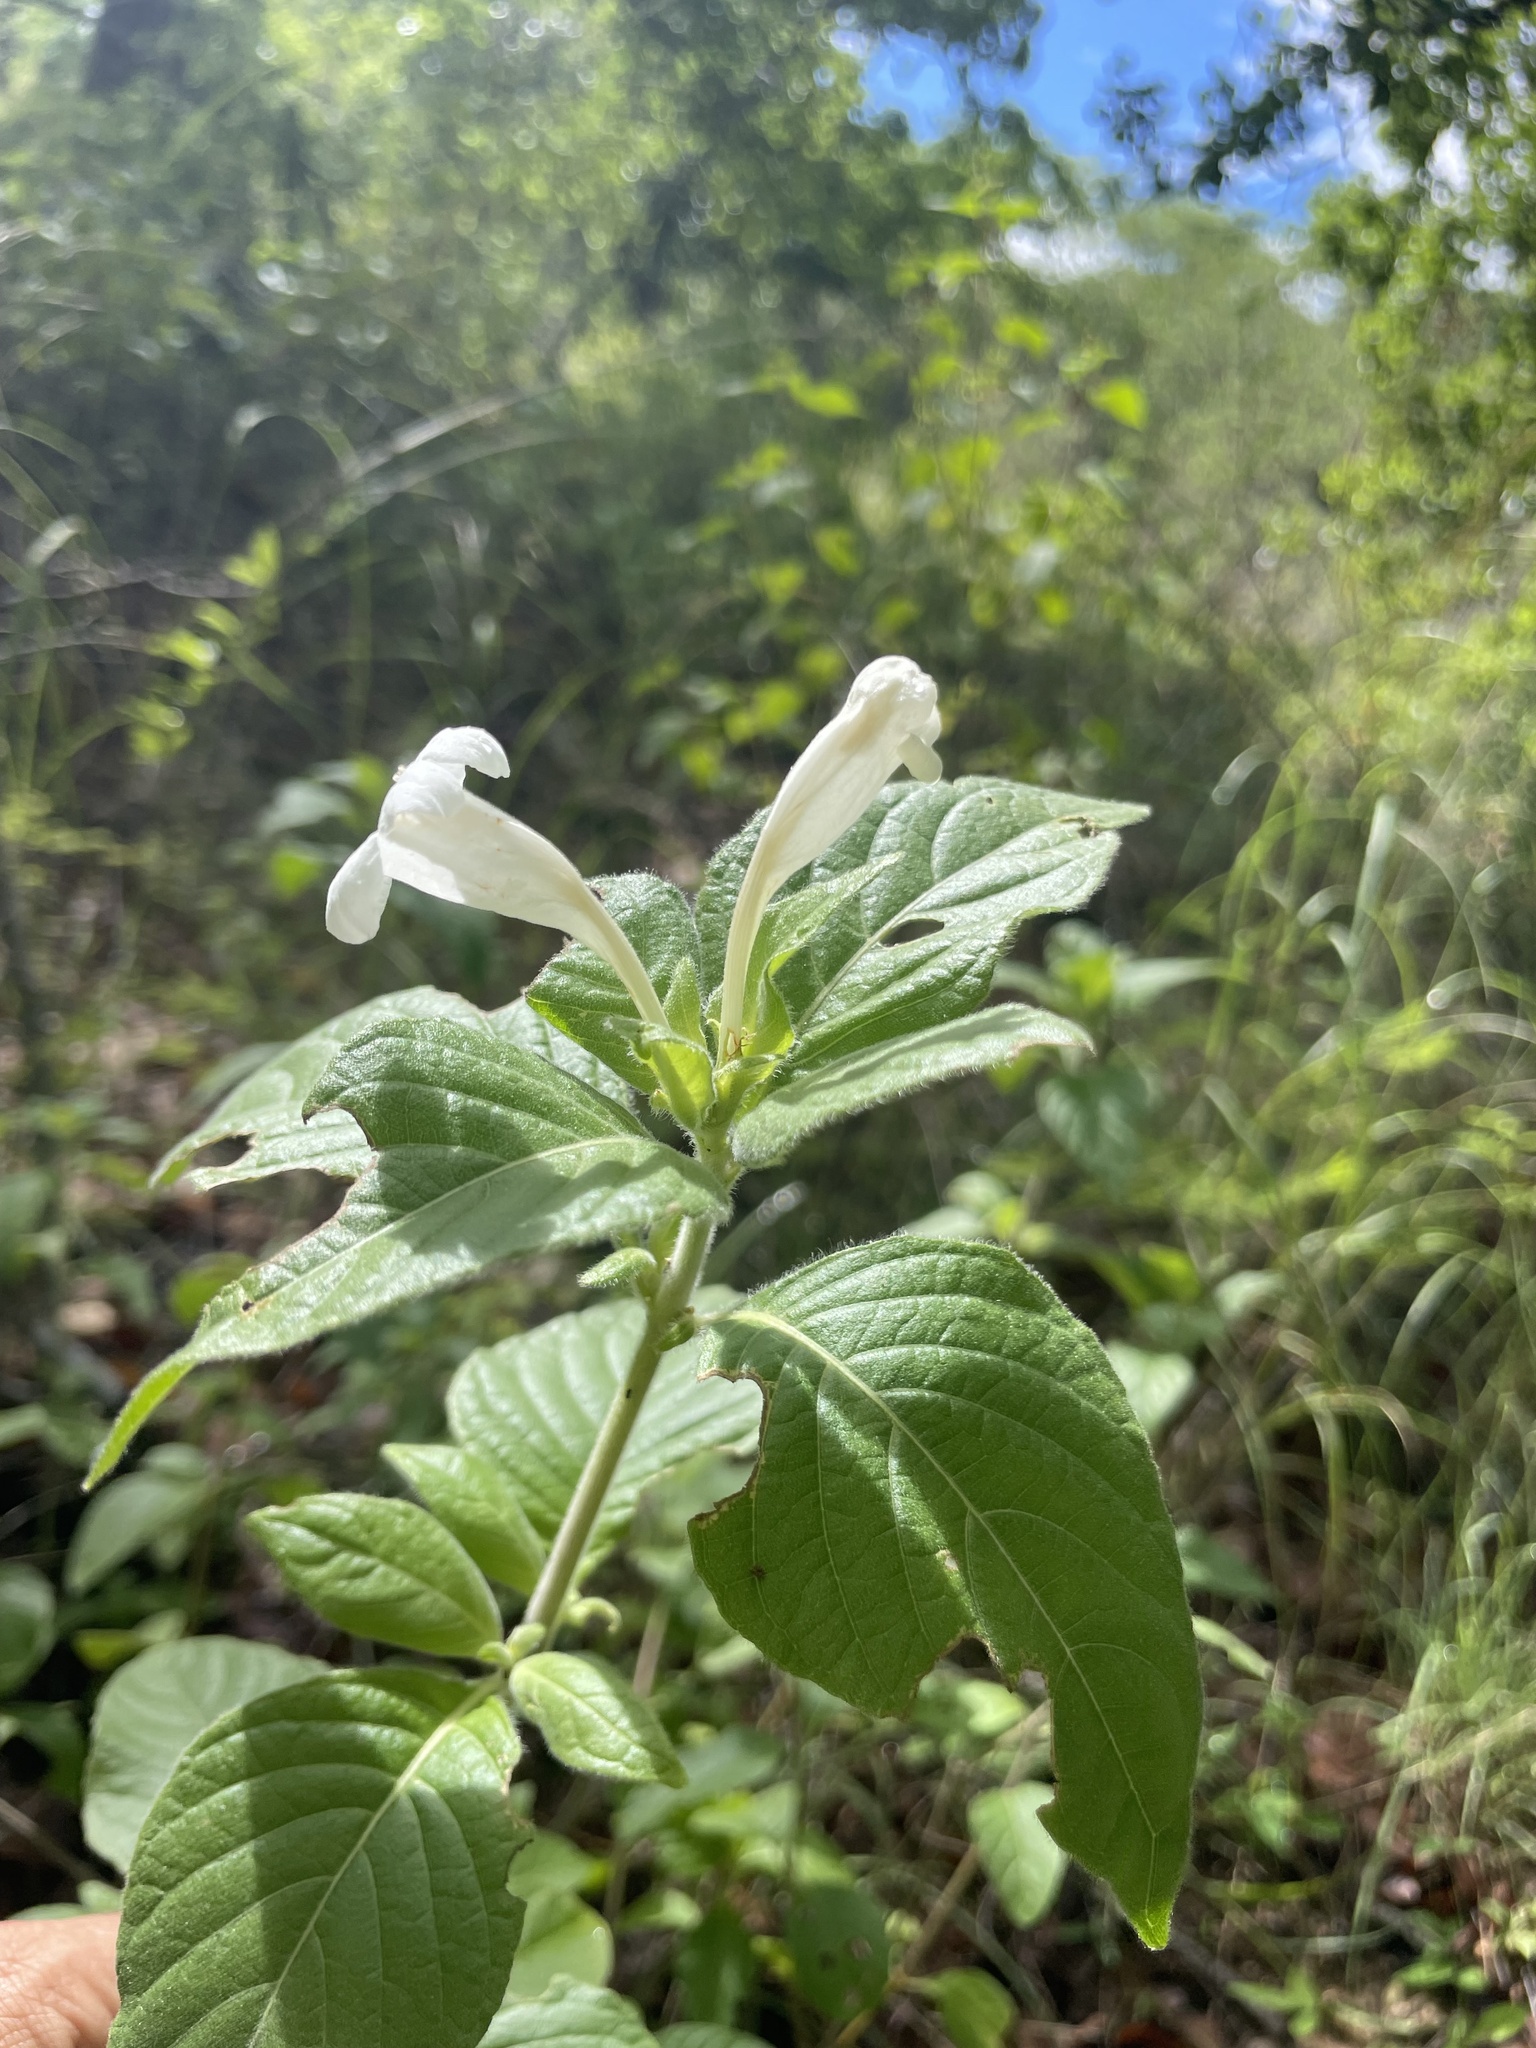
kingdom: Plantae
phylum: Tracheophyta
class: Magnoliopsida
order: Lamiales
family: Acanthaceae
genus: Ruellia
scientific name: Ruellia leucantha
